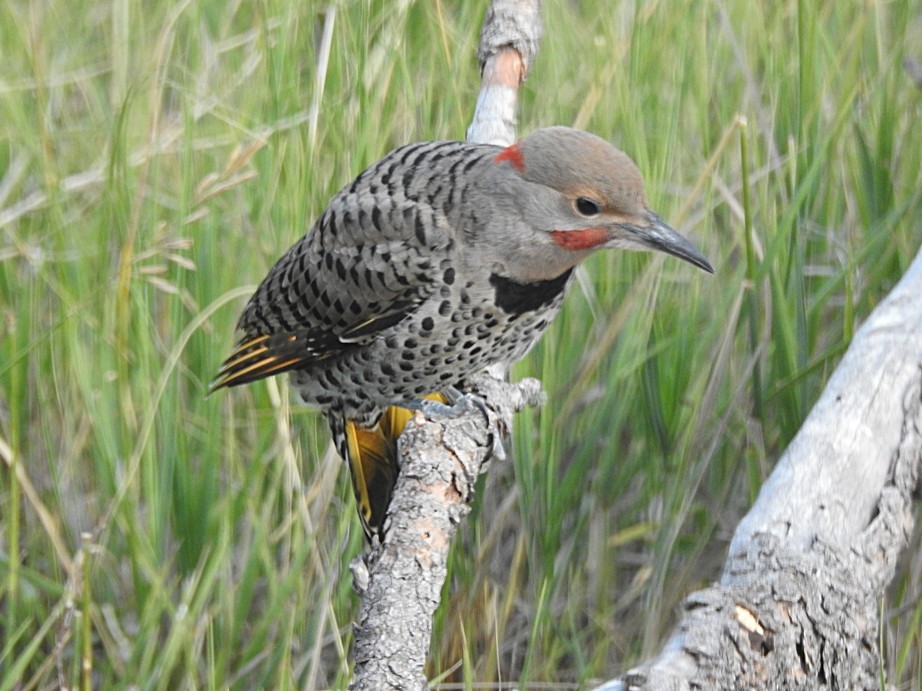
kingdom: Animalia
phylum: Chordata
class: Aves
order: Piciformes
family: Picidae
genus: Colaptes
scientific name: Colaptes auratus
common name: Northern flicker
